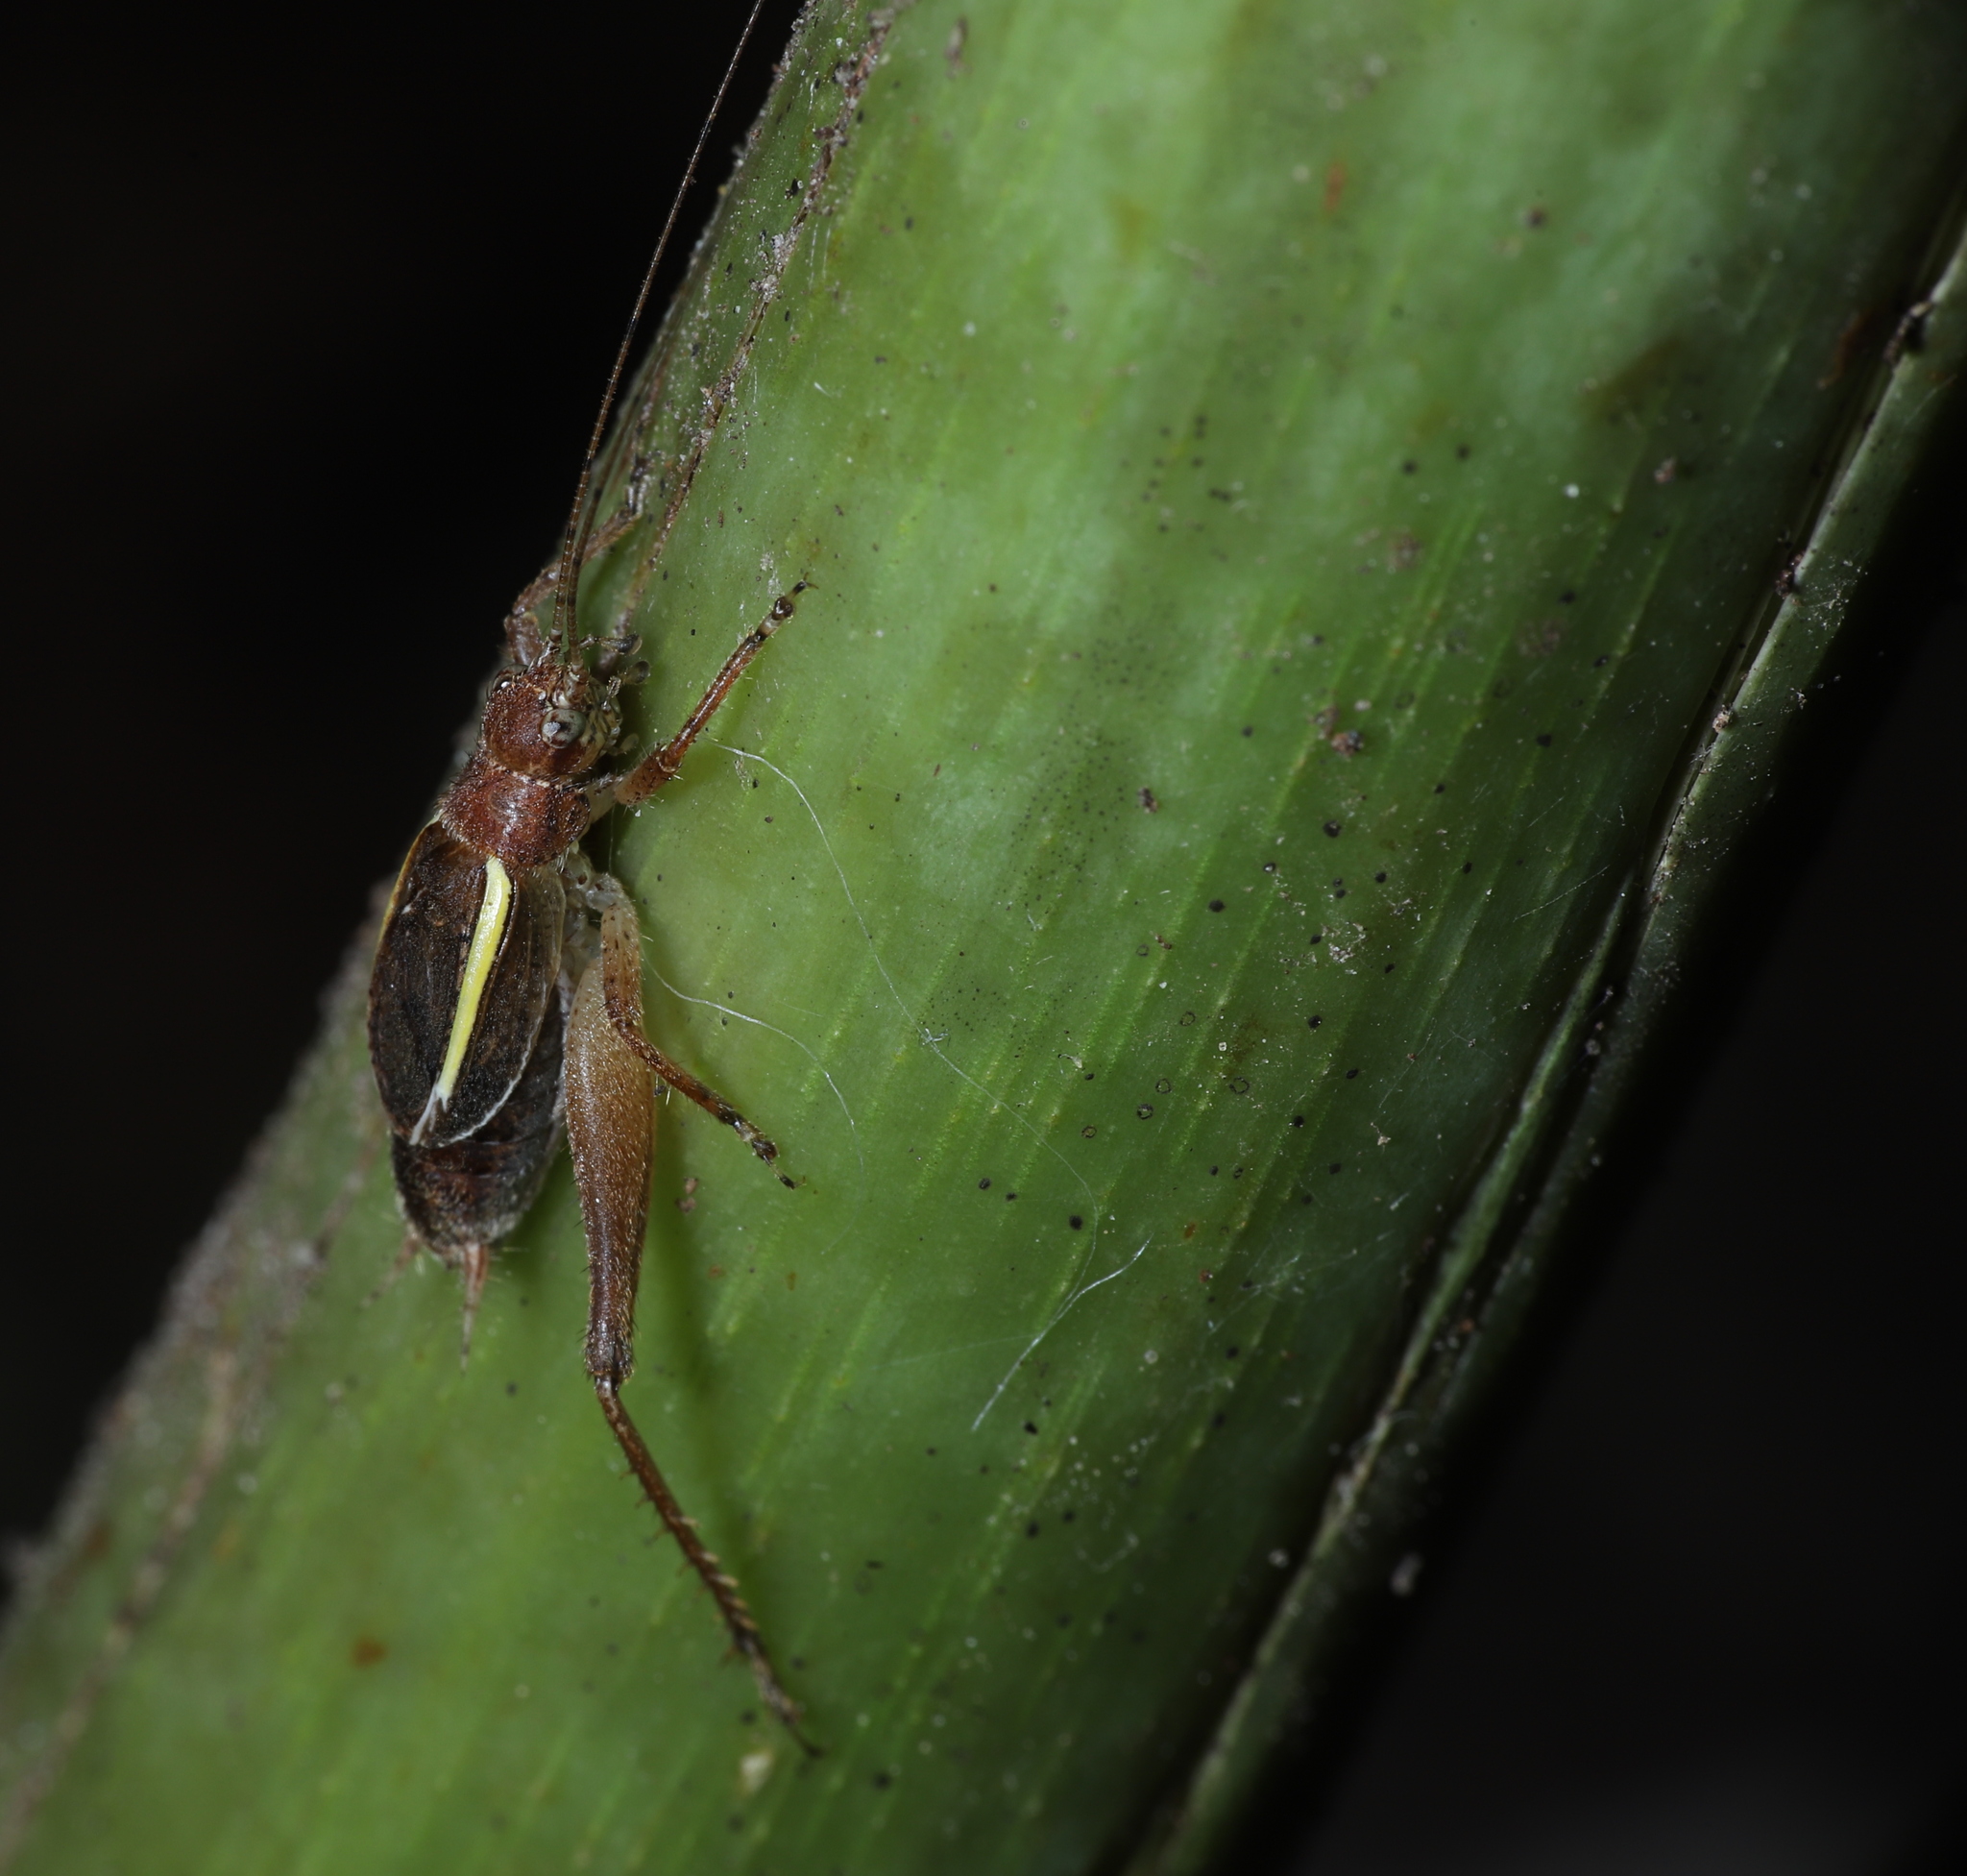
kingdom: Animalia
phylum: Arthropoda
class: Insecta
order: Orthoptera
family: Gryllidae
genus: Hapithus
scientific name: Hapithus agitator
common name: Restless bush cricket
